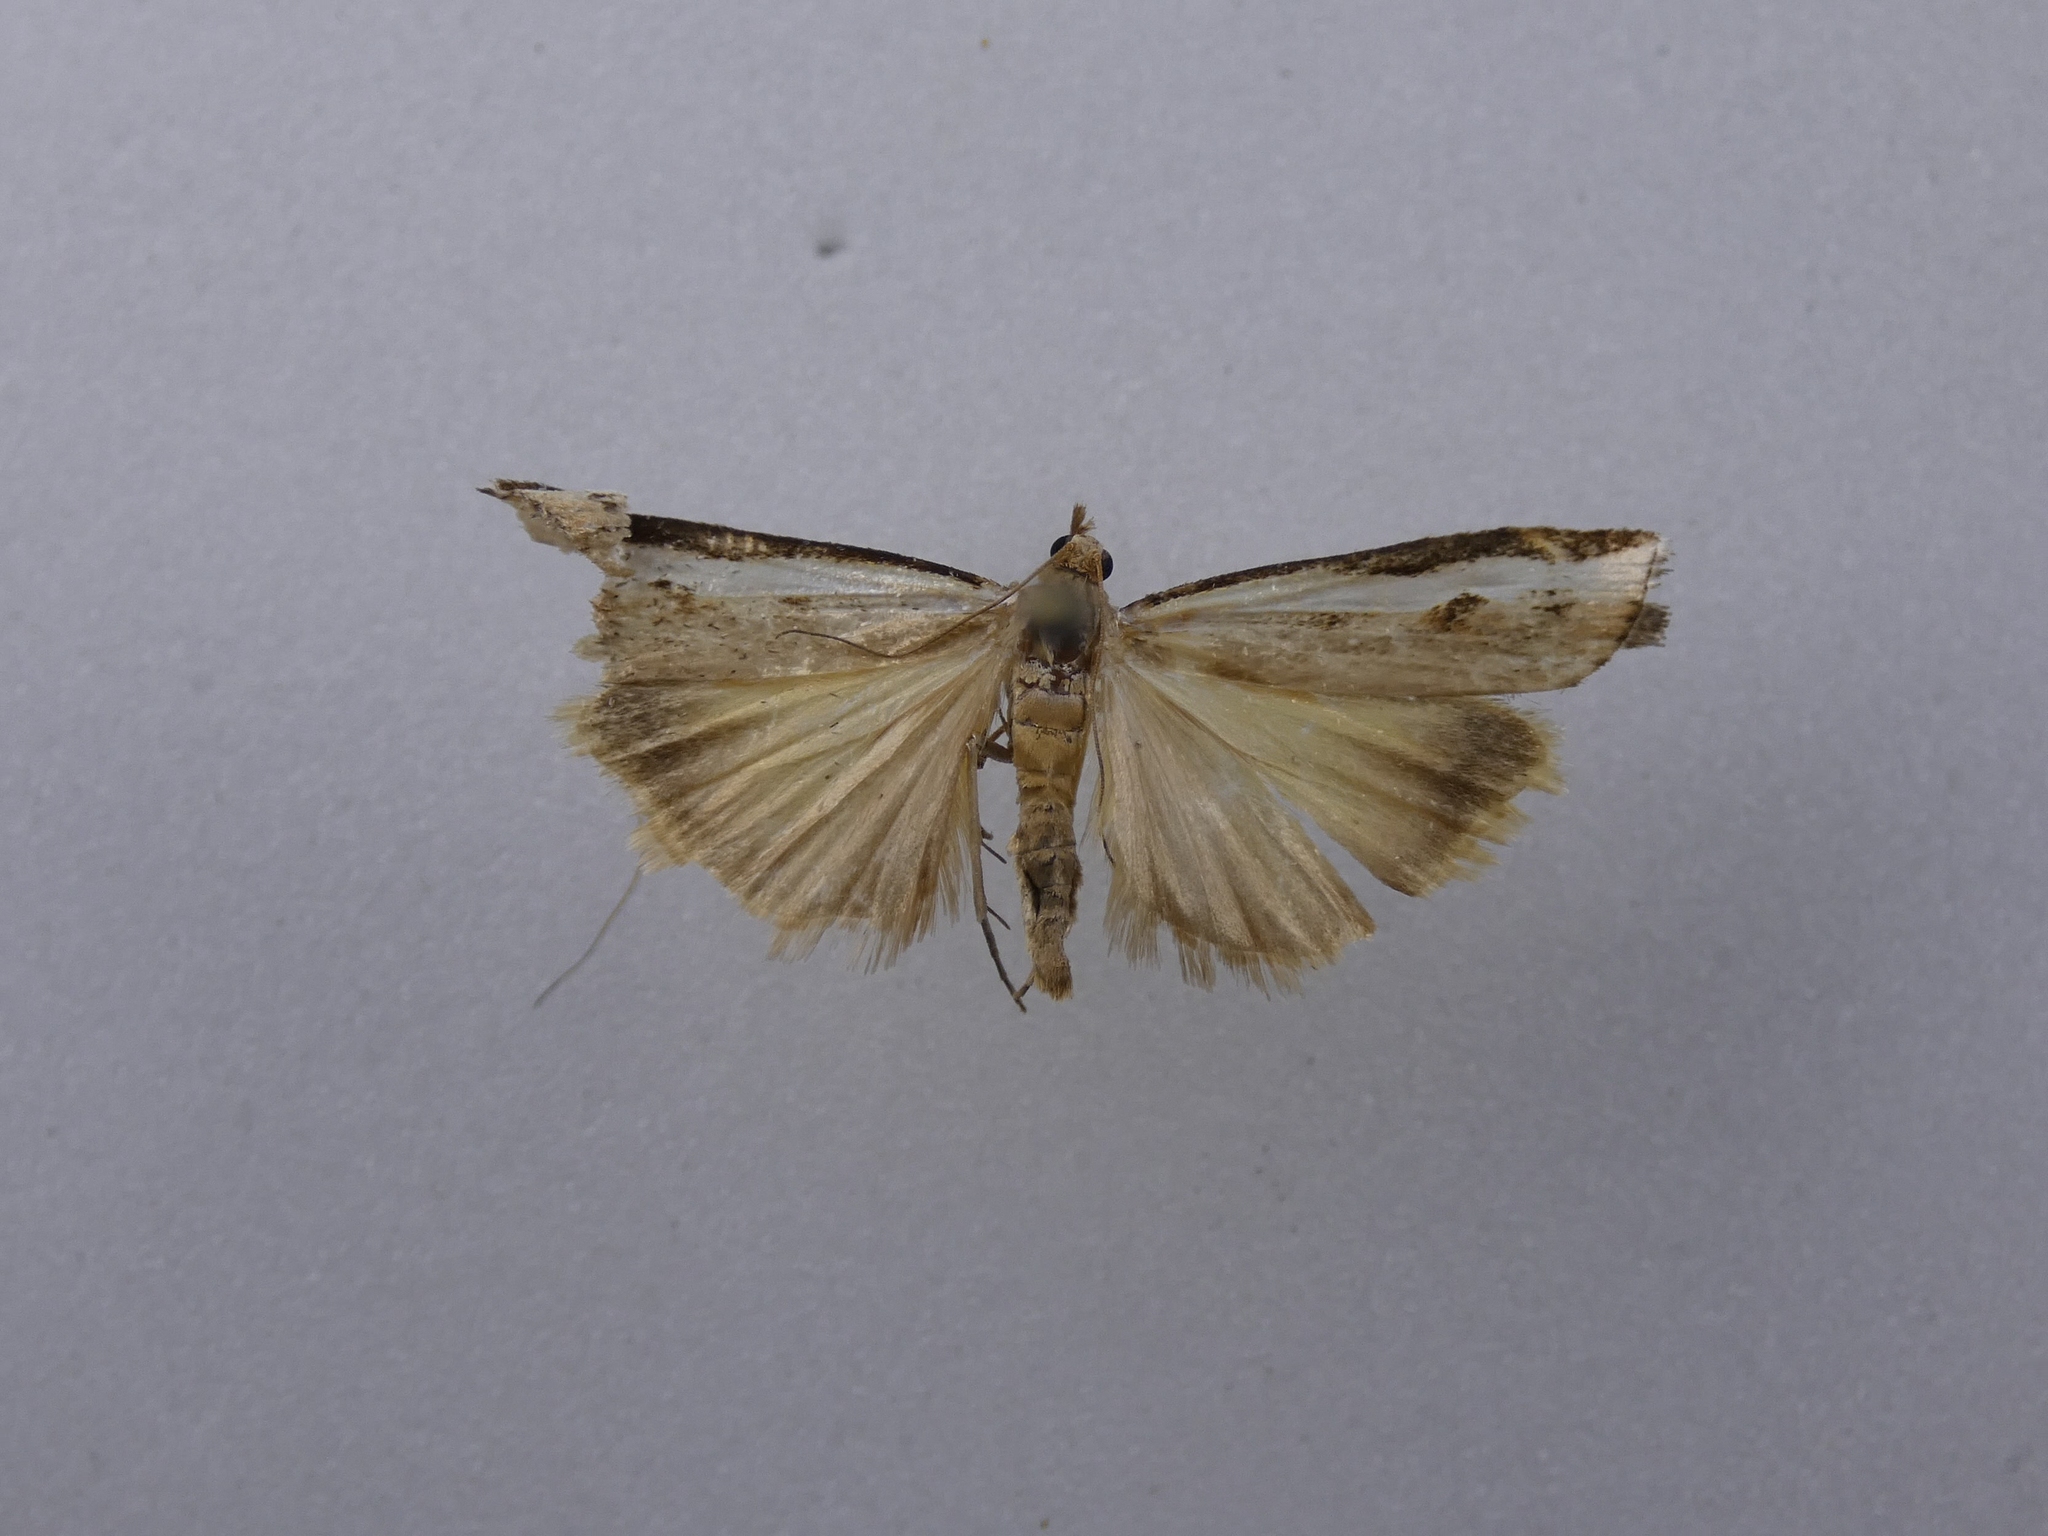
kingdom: Animalia
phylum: Arthropoda
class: Insecta
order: Lepidoptera
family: Crambidae
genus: Orocrambus
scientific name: Orocrambus flexuosellus
